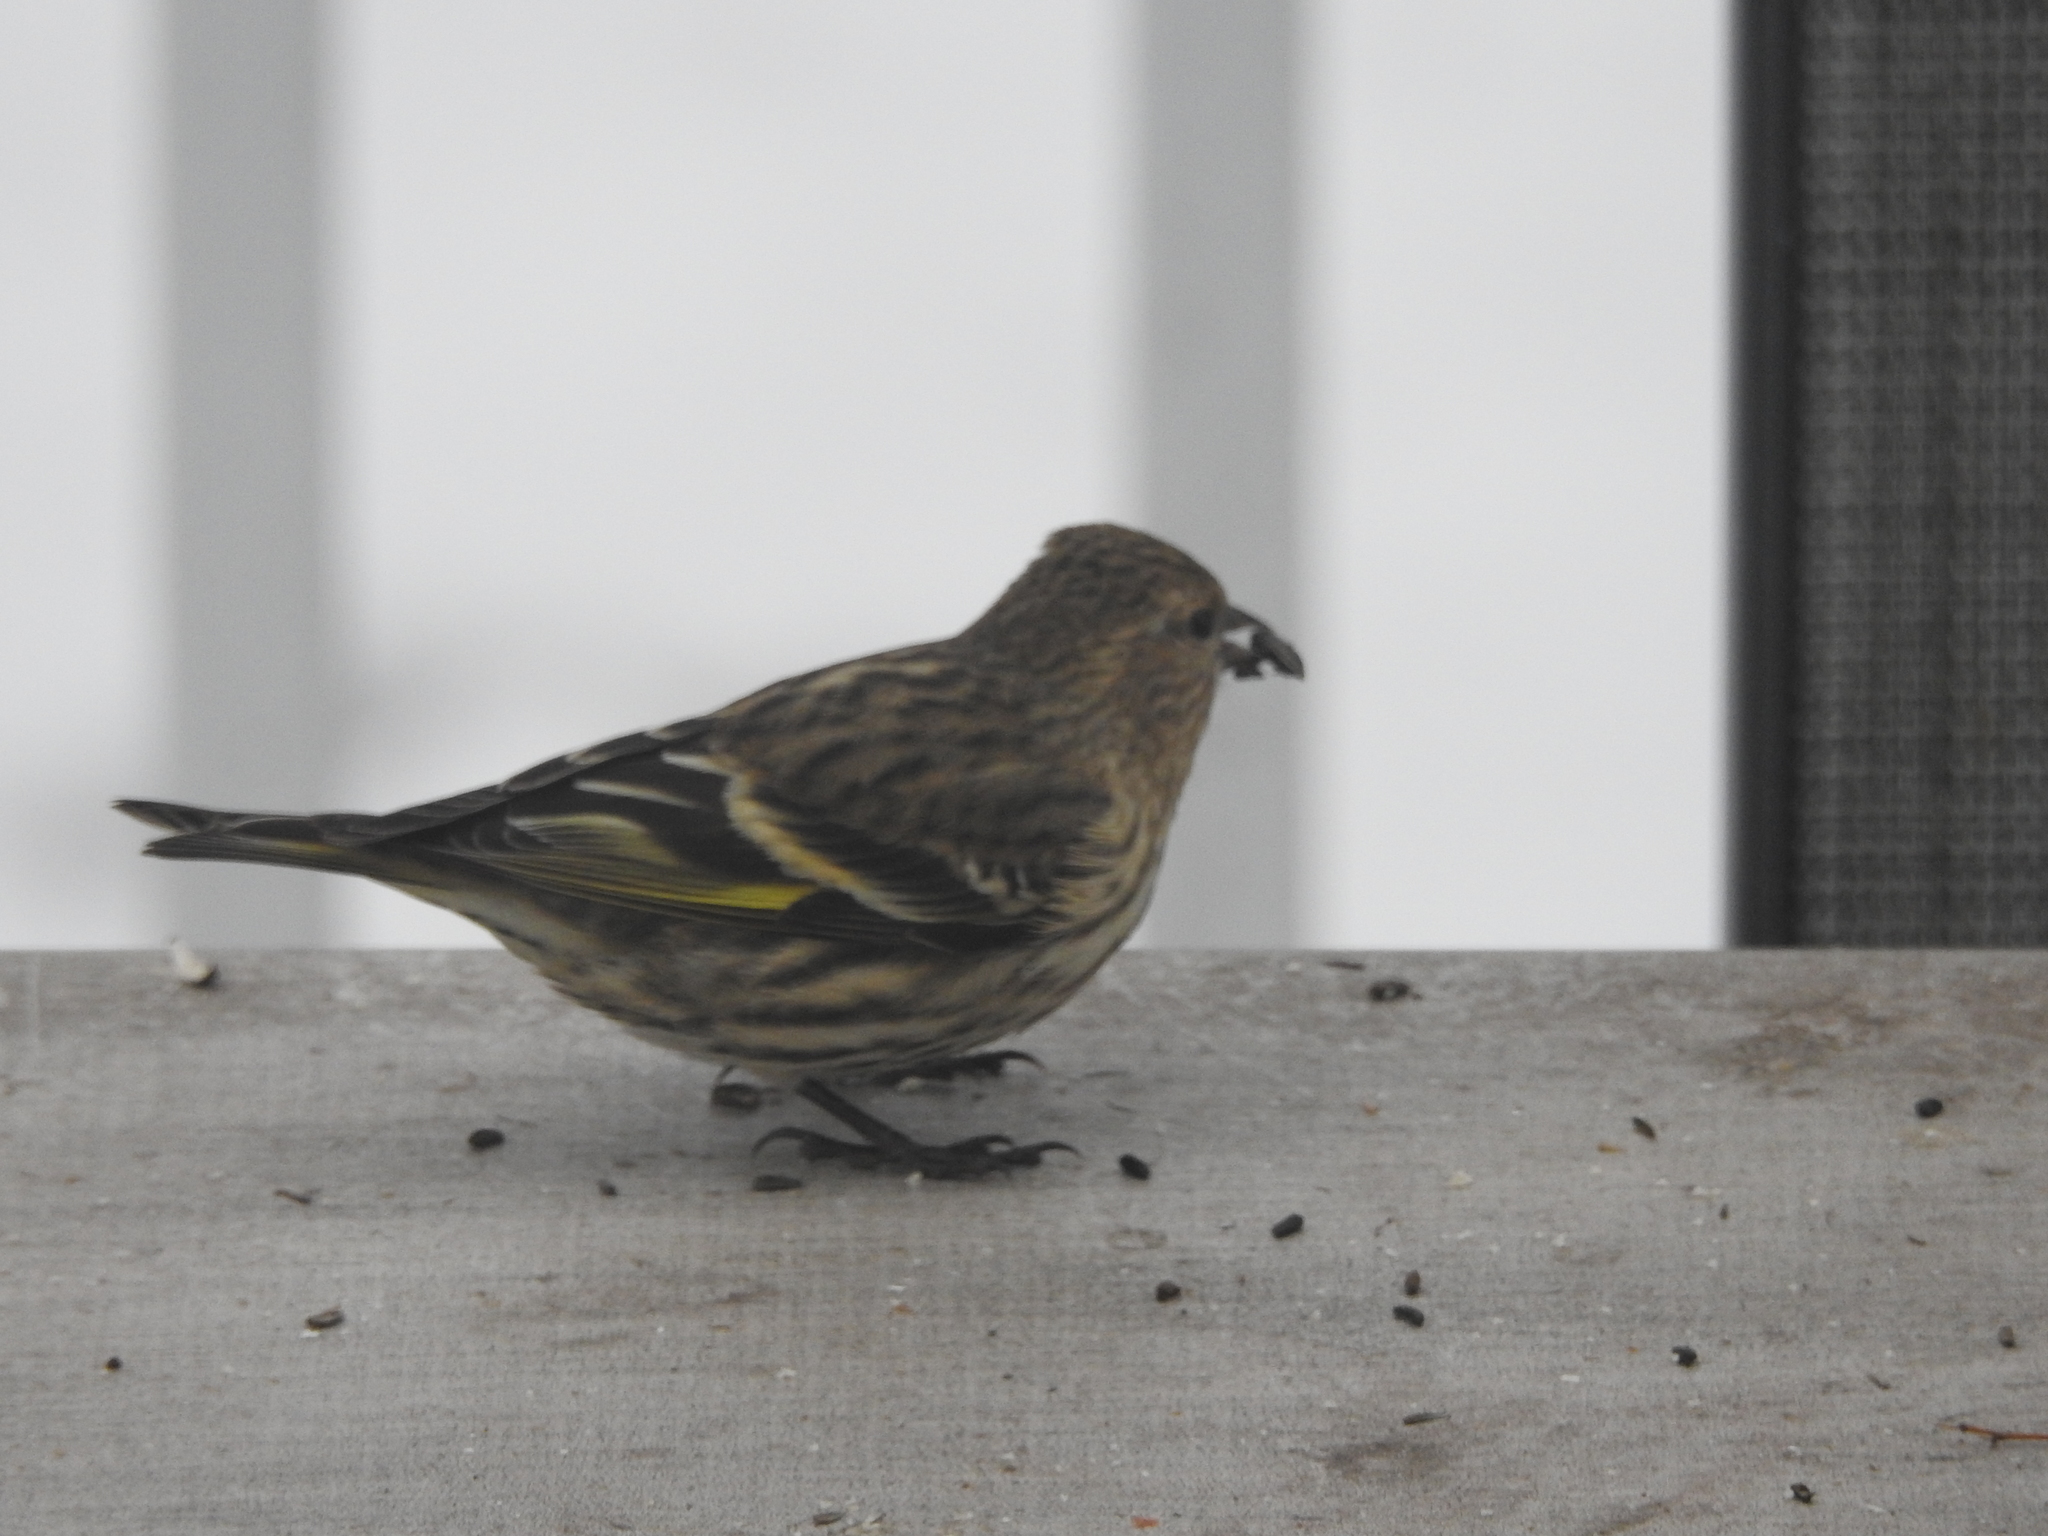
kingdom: Animalia
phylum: Chordata
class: Aves
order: Passeriformes
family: Fringillidae
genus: Spinus
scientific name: Spinus pinus
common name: Pine siskin
